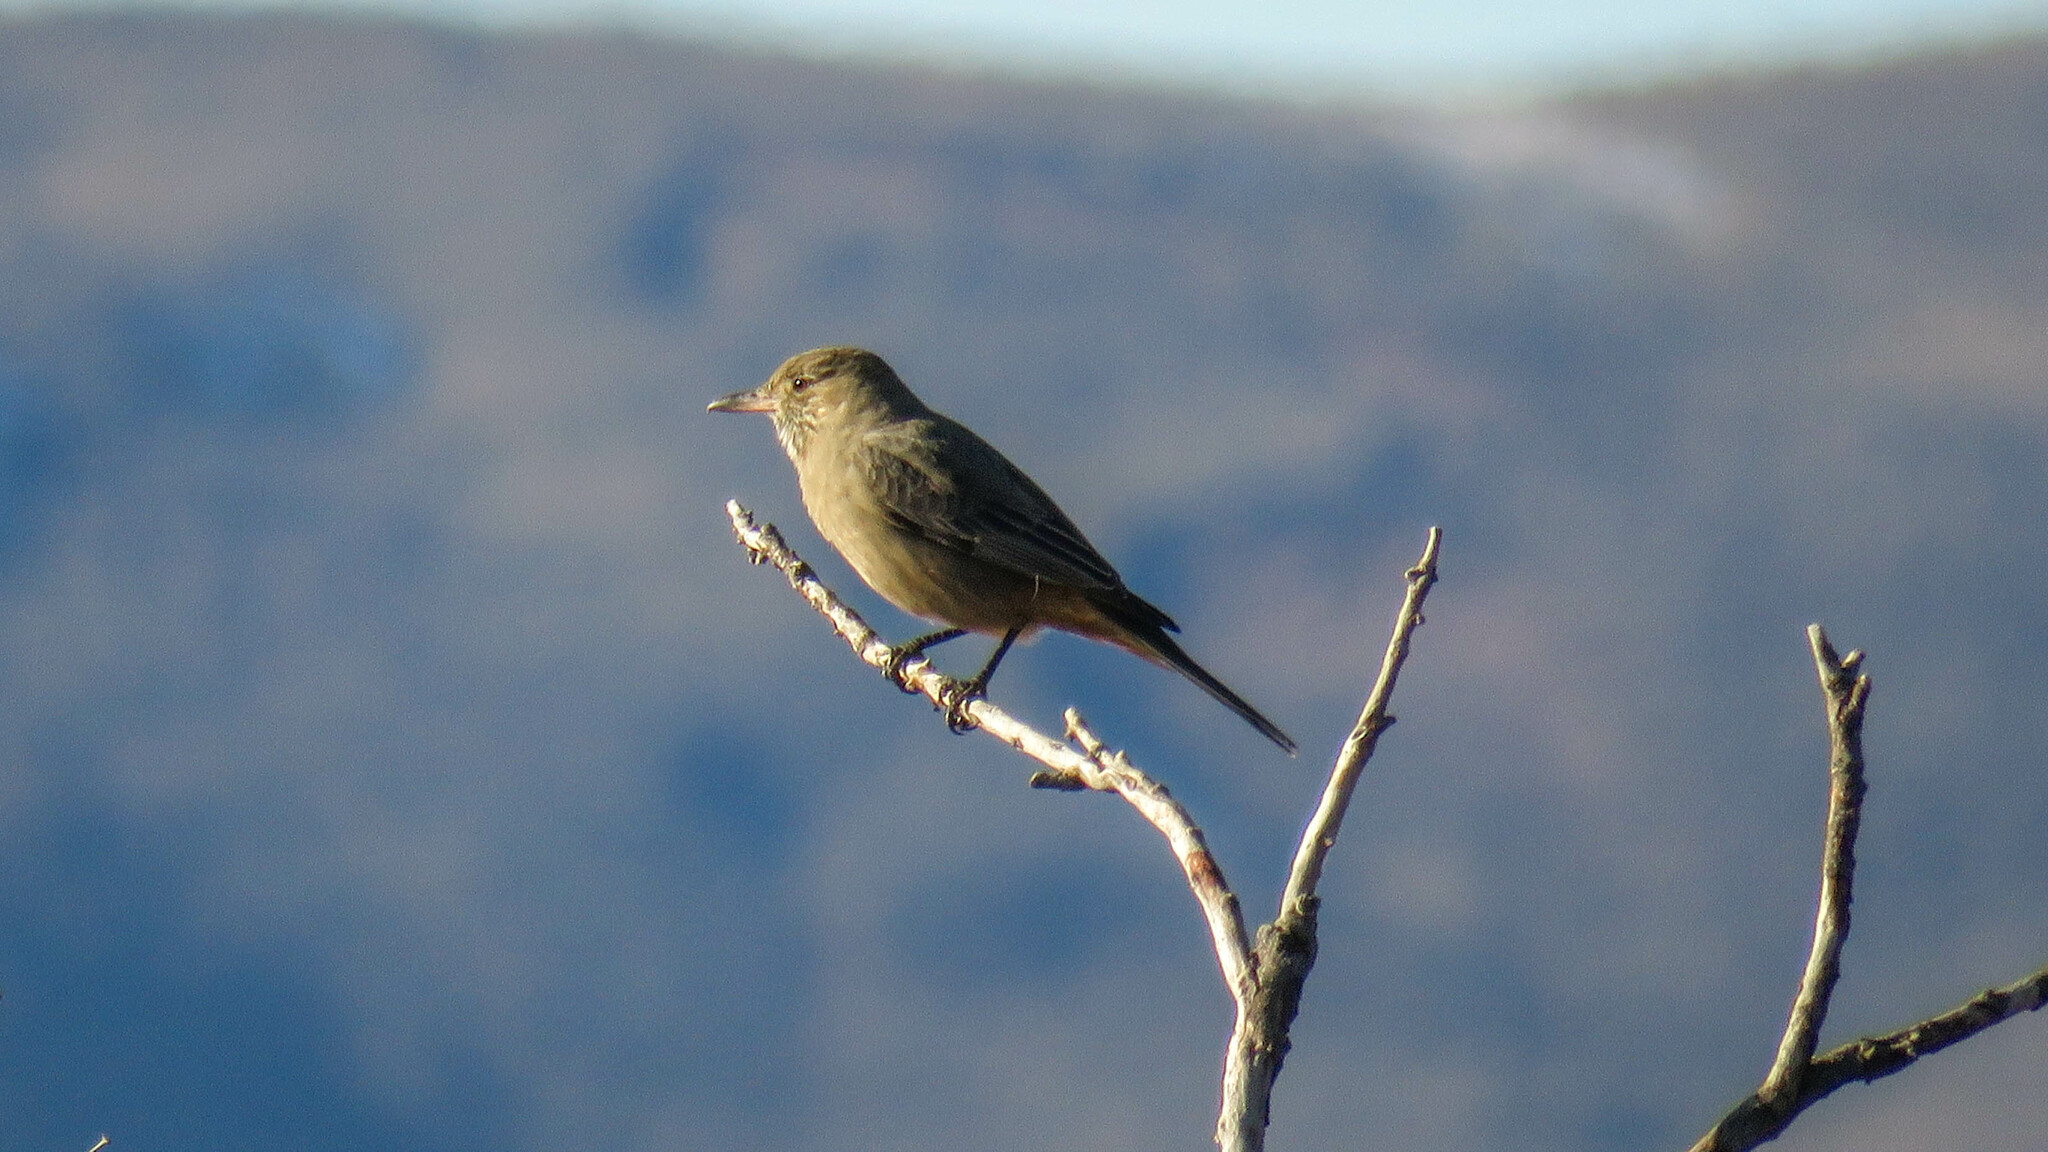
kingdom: Animalia
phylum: Chordata
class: Aves
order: Passeriformes
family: Tyrannidae
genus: Agriornis
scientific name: Agriornis lividus
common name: Great shrike-tyrant
